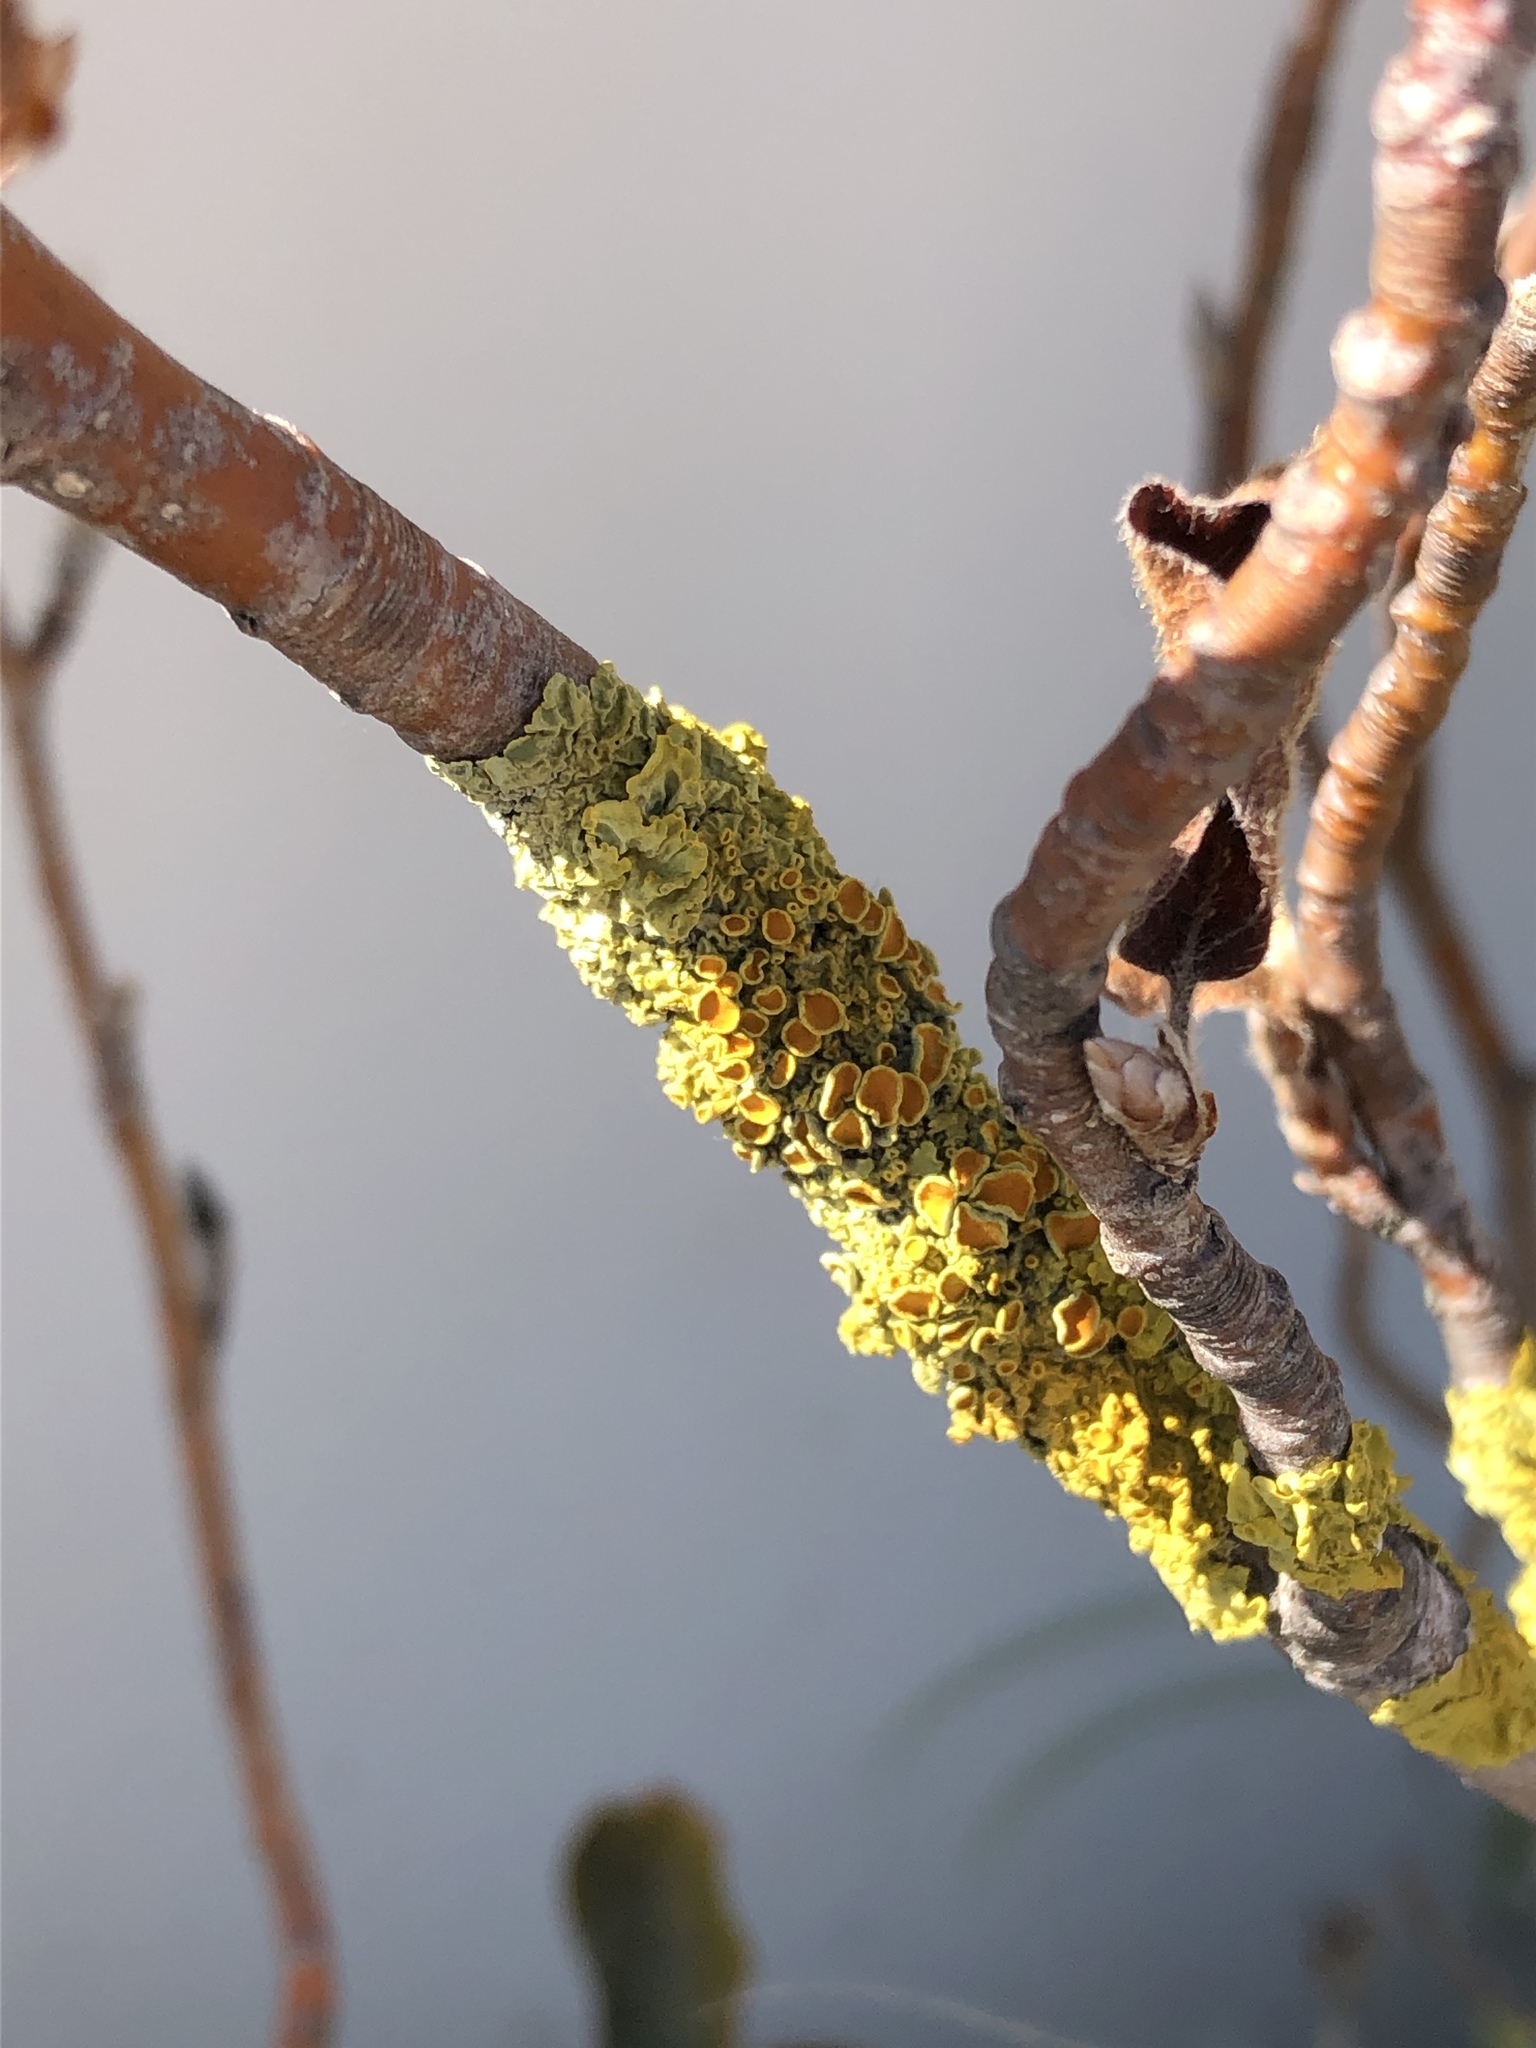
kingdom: Fungi
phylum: Ascomycota
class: Lecanoromycetes
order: Teloschistales
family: Teloschistaceae
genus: Polycauliona
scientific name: Polycauliona polycarpa
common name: Pin-cushion sunburst lichen
